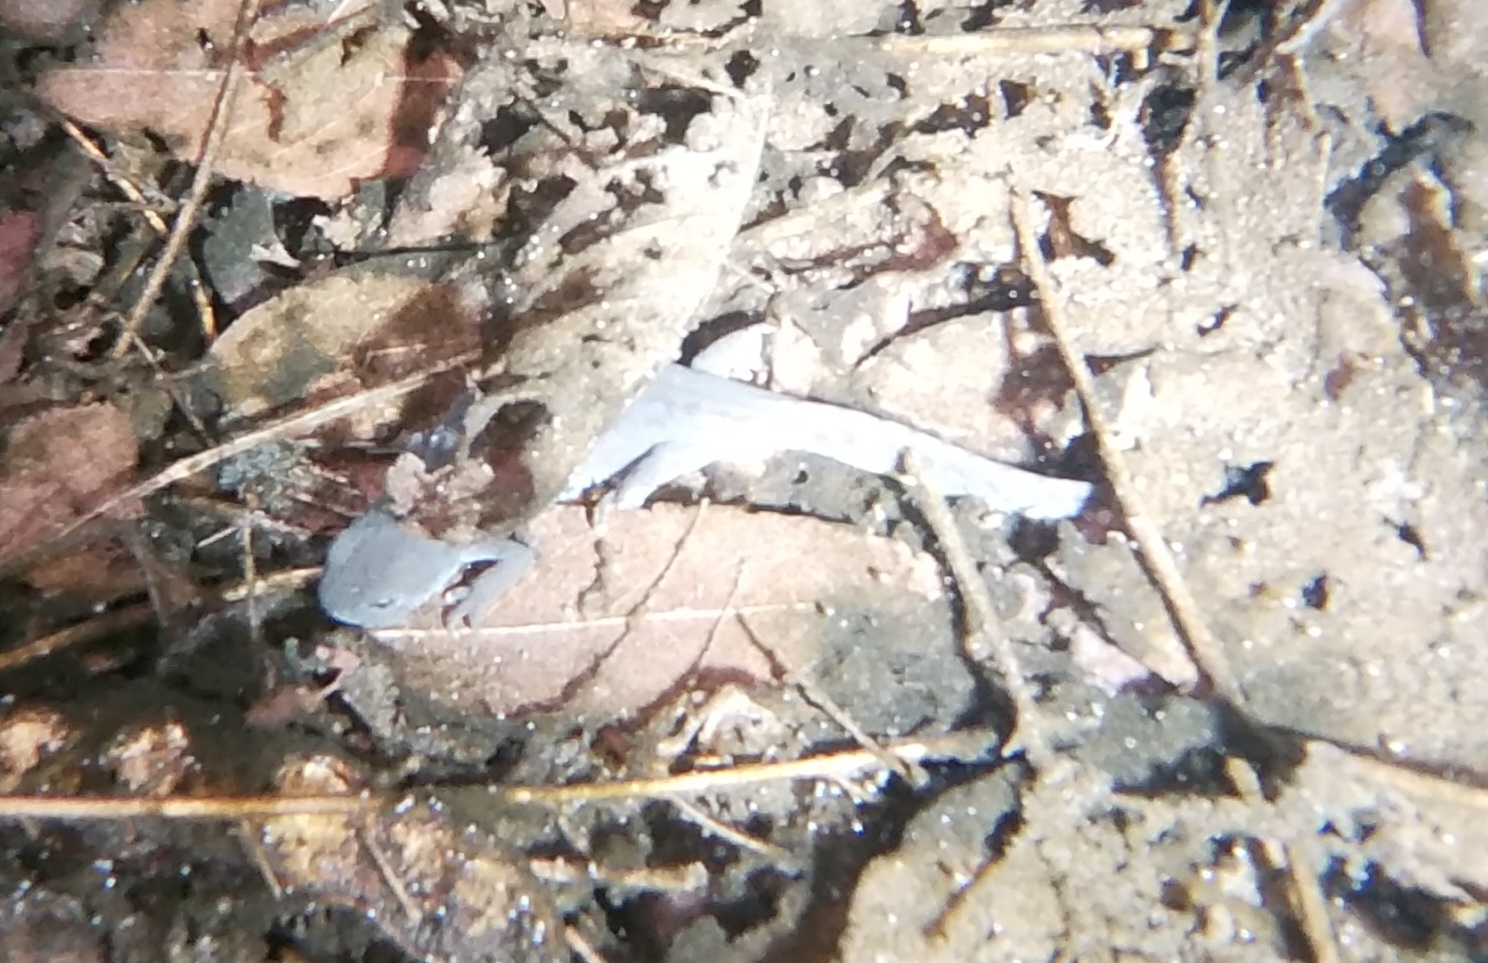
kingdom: Animalia
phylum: Chordata
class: Amphibia
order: Caudata
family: Salamandridae
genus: Ichthyosaura
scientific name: Ichthyosaura alpestris
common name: Alpine newt
